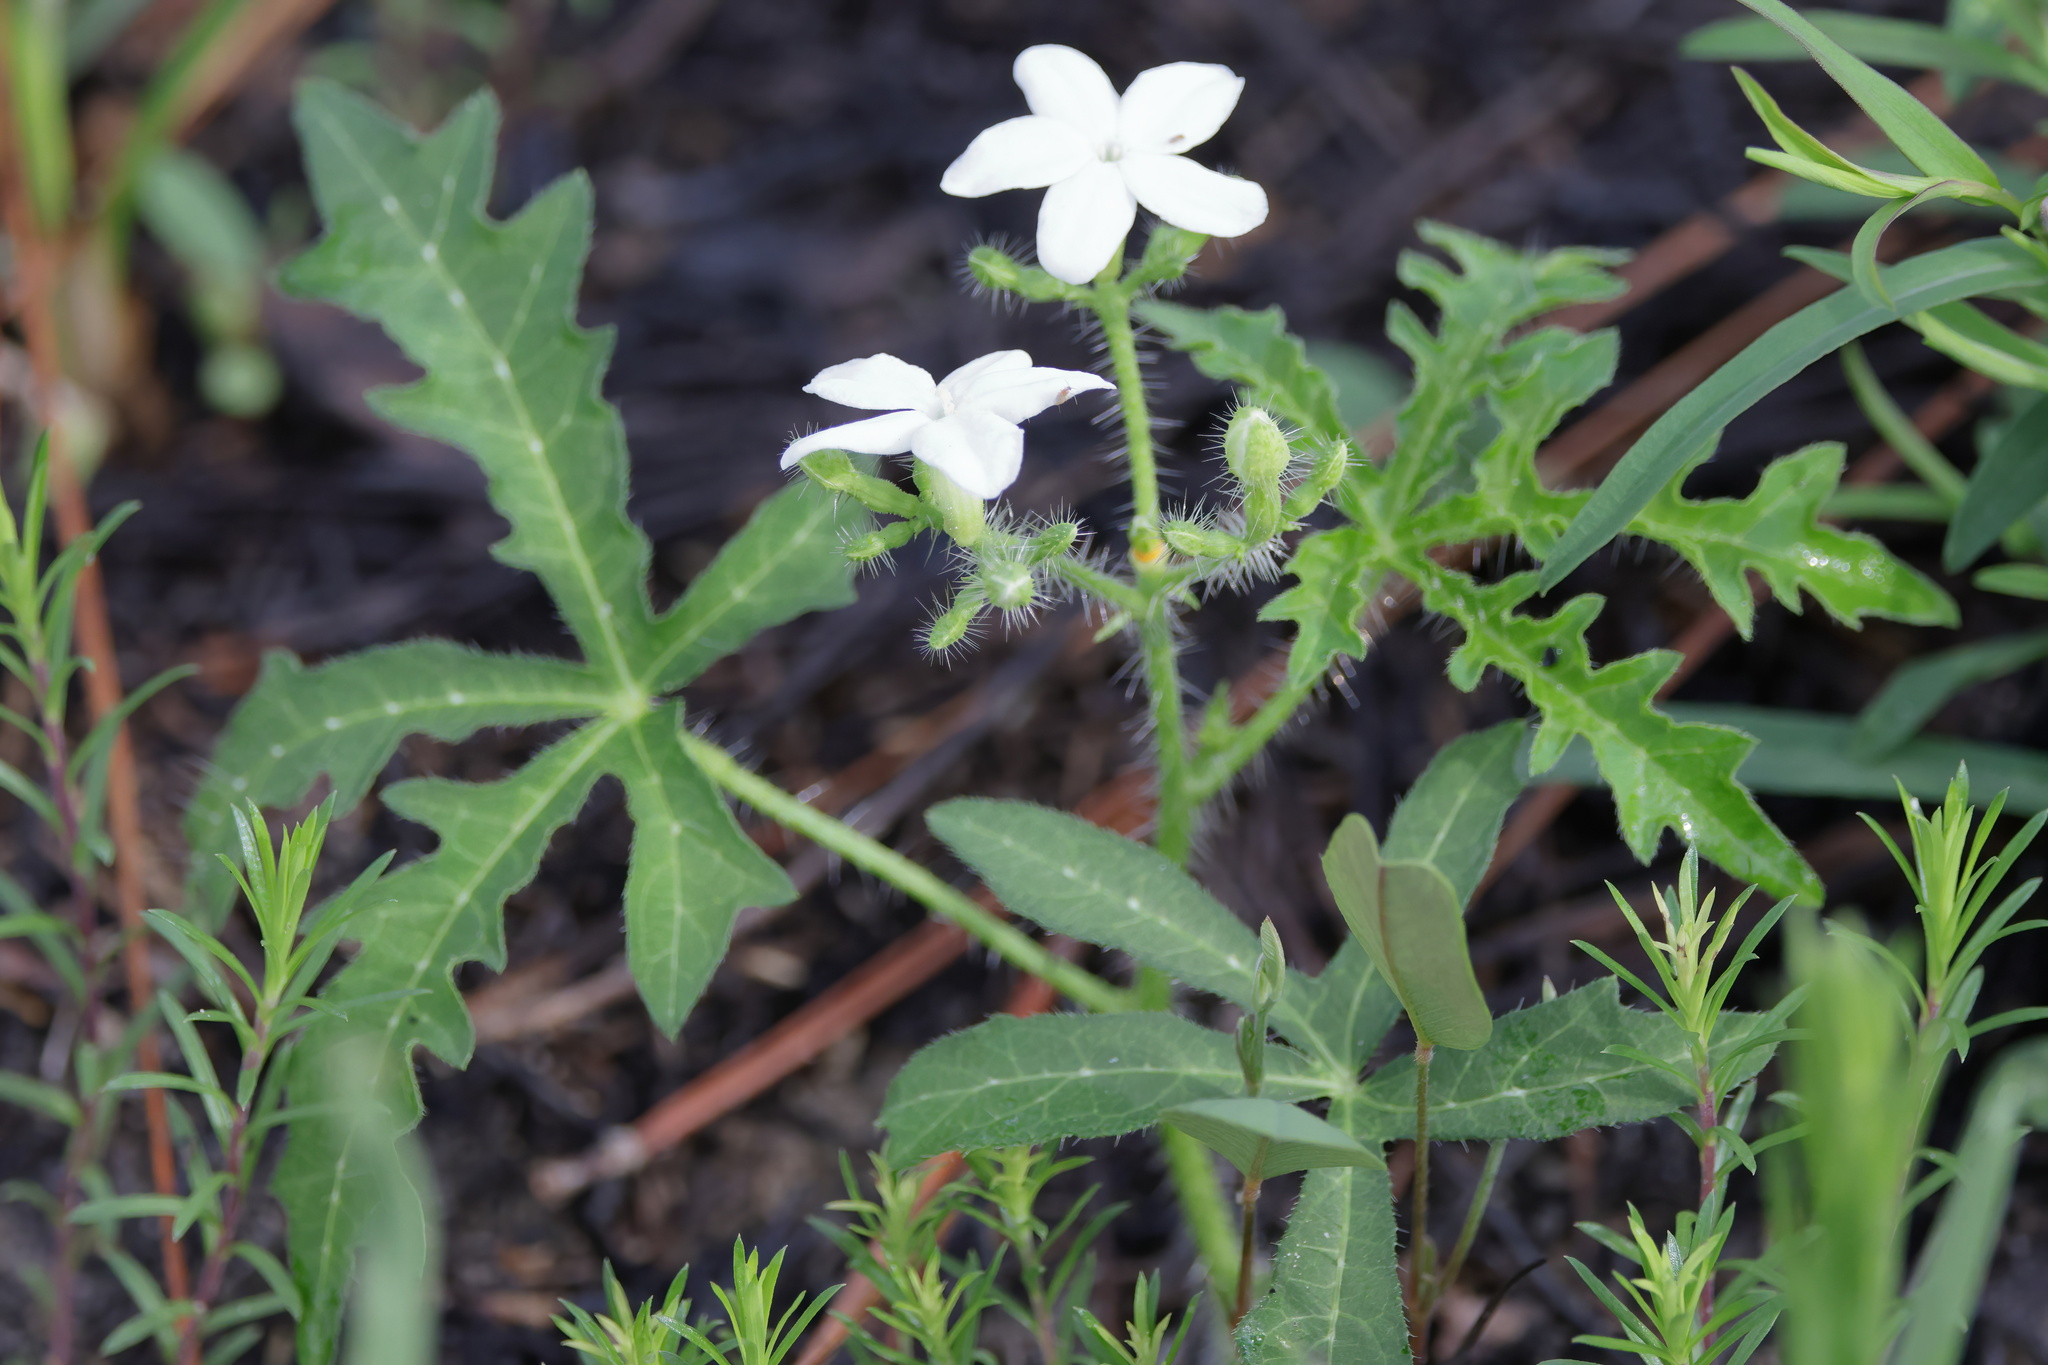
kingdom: Plantae
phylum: Tracheophyta
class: Magnoliopsida
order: Malpighiales
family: Euphorbiaceae
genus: Cnidoscolus
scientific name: Cnidoscolus stimulosus
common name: Bull-nettle
